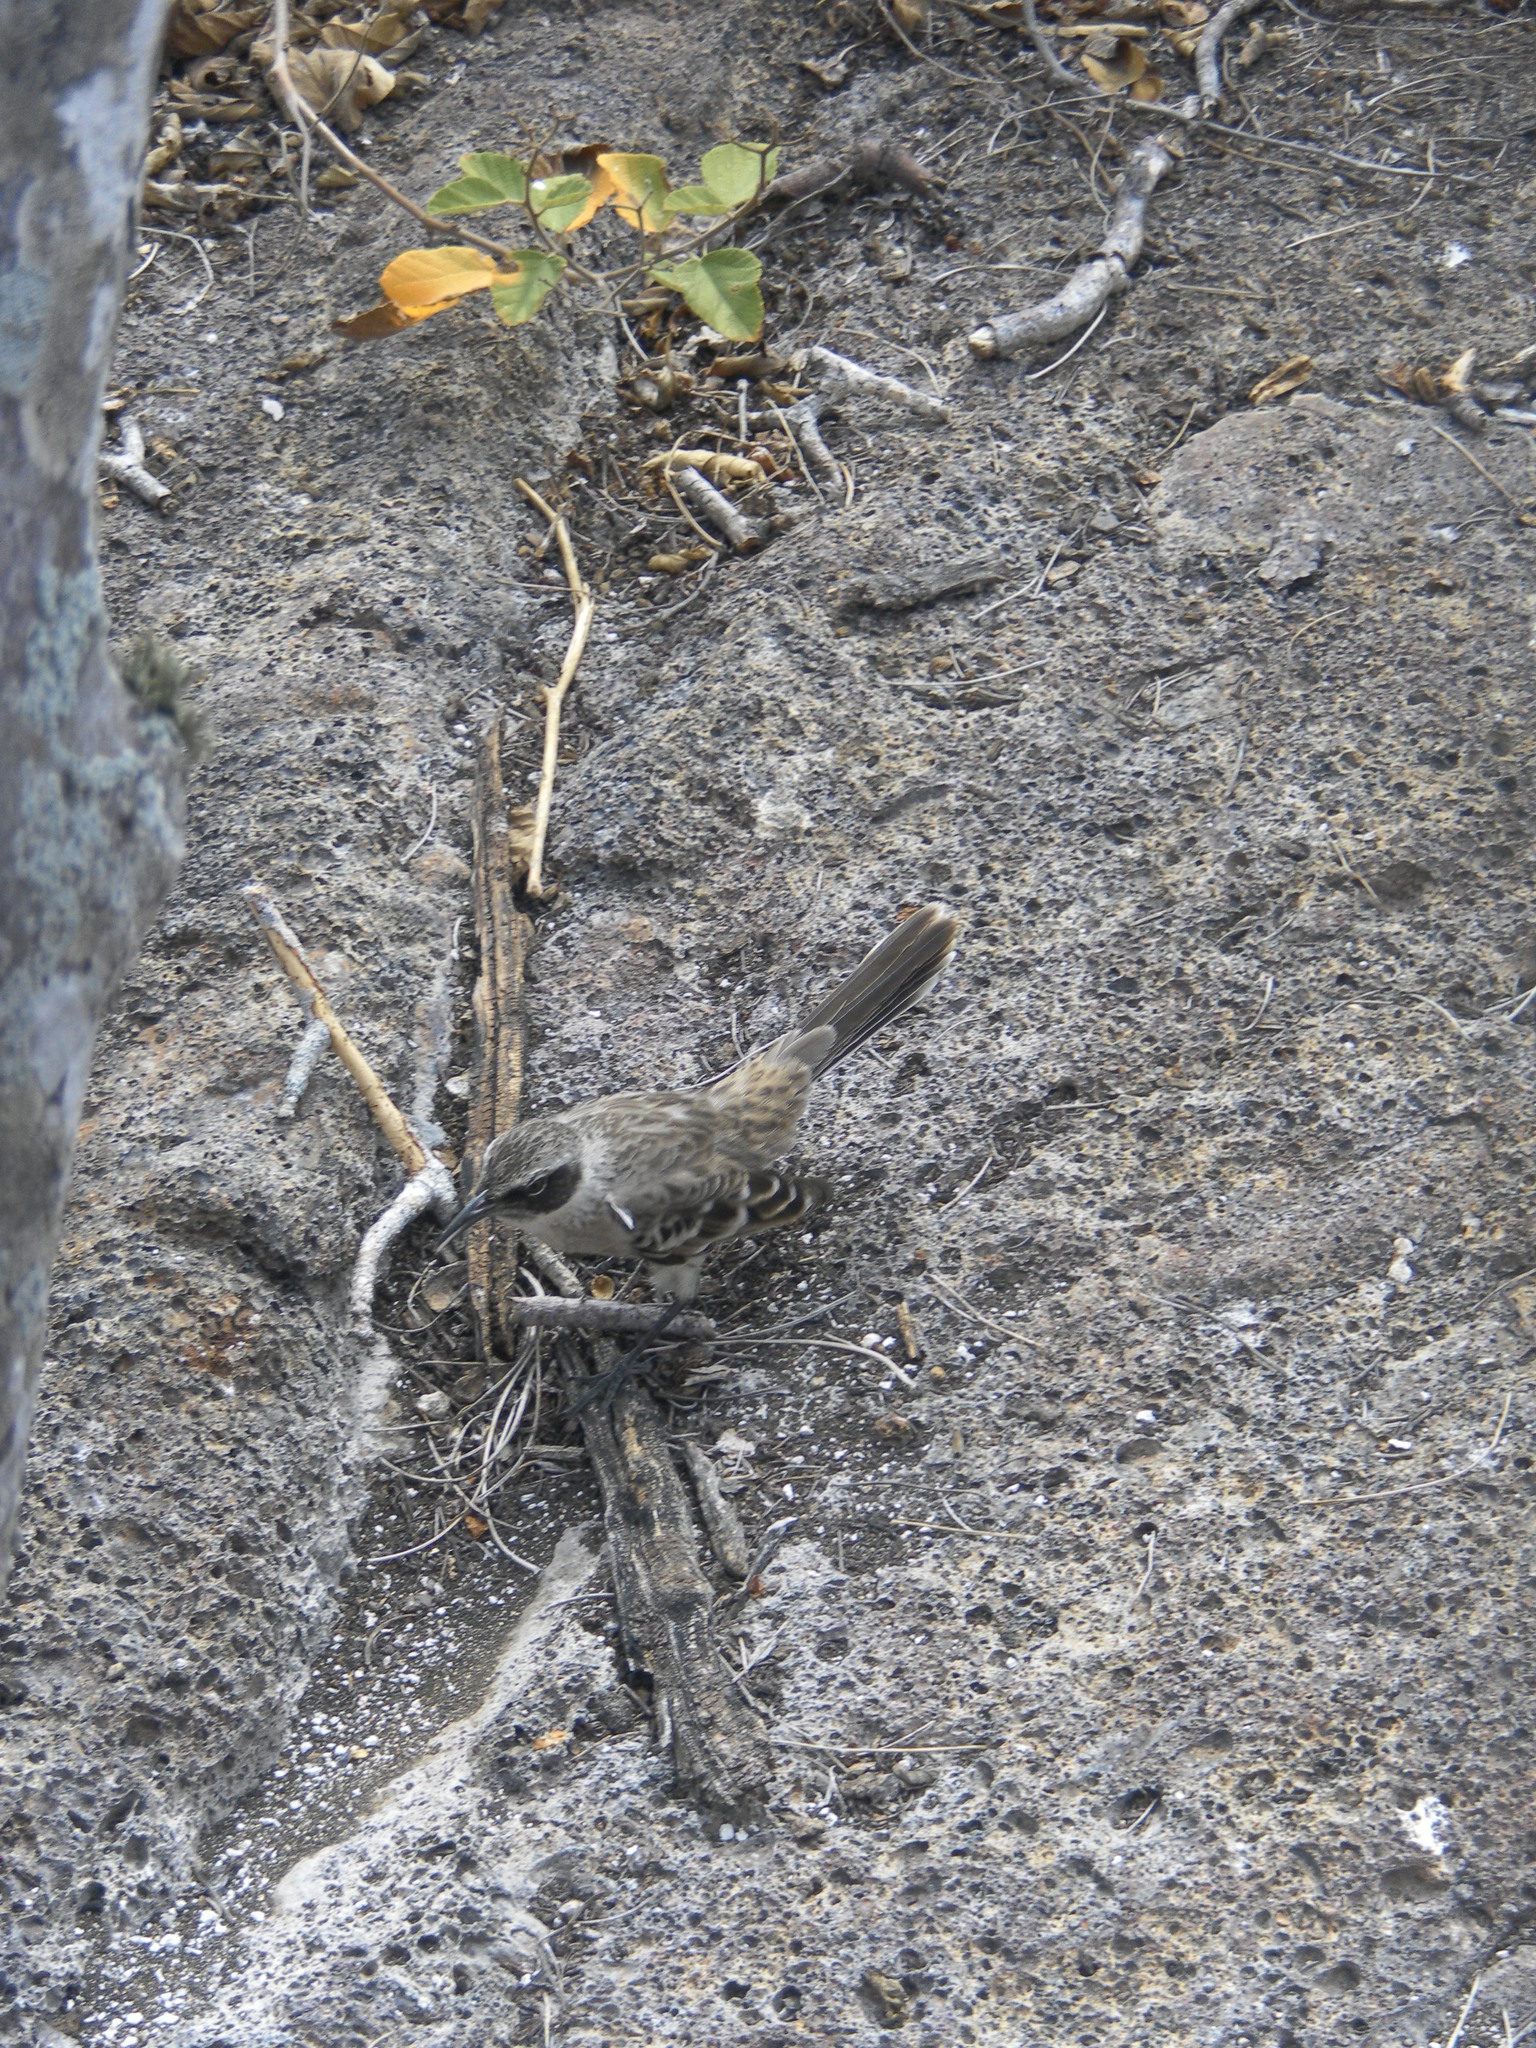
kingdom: Animalia
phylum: Chordata
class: Aves
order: Passeriformes
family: Mimidae
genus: Mimus
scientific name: Mimus parvulus
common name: Galapagos mockingbird
